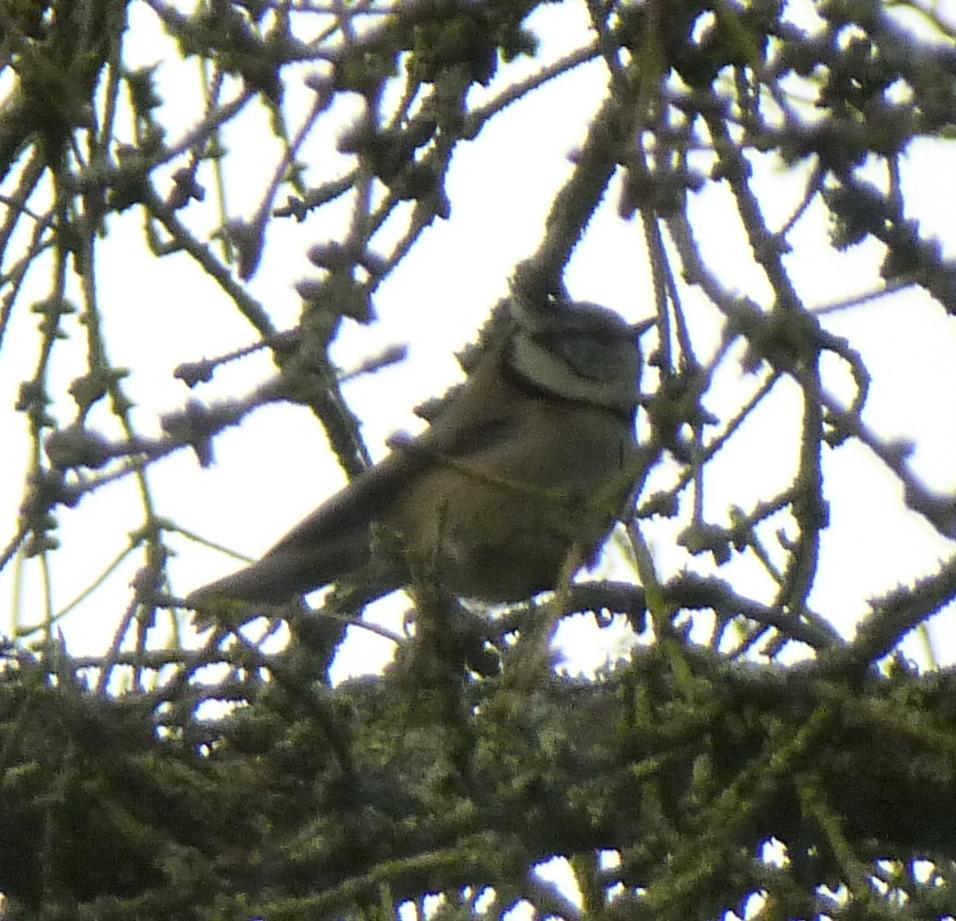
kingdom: Animalia
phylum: Chordata
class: Aves
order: Passeriformes
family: Paridae
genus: Lophophanes
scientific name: Lophophanes cristatus
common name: European crested tit
